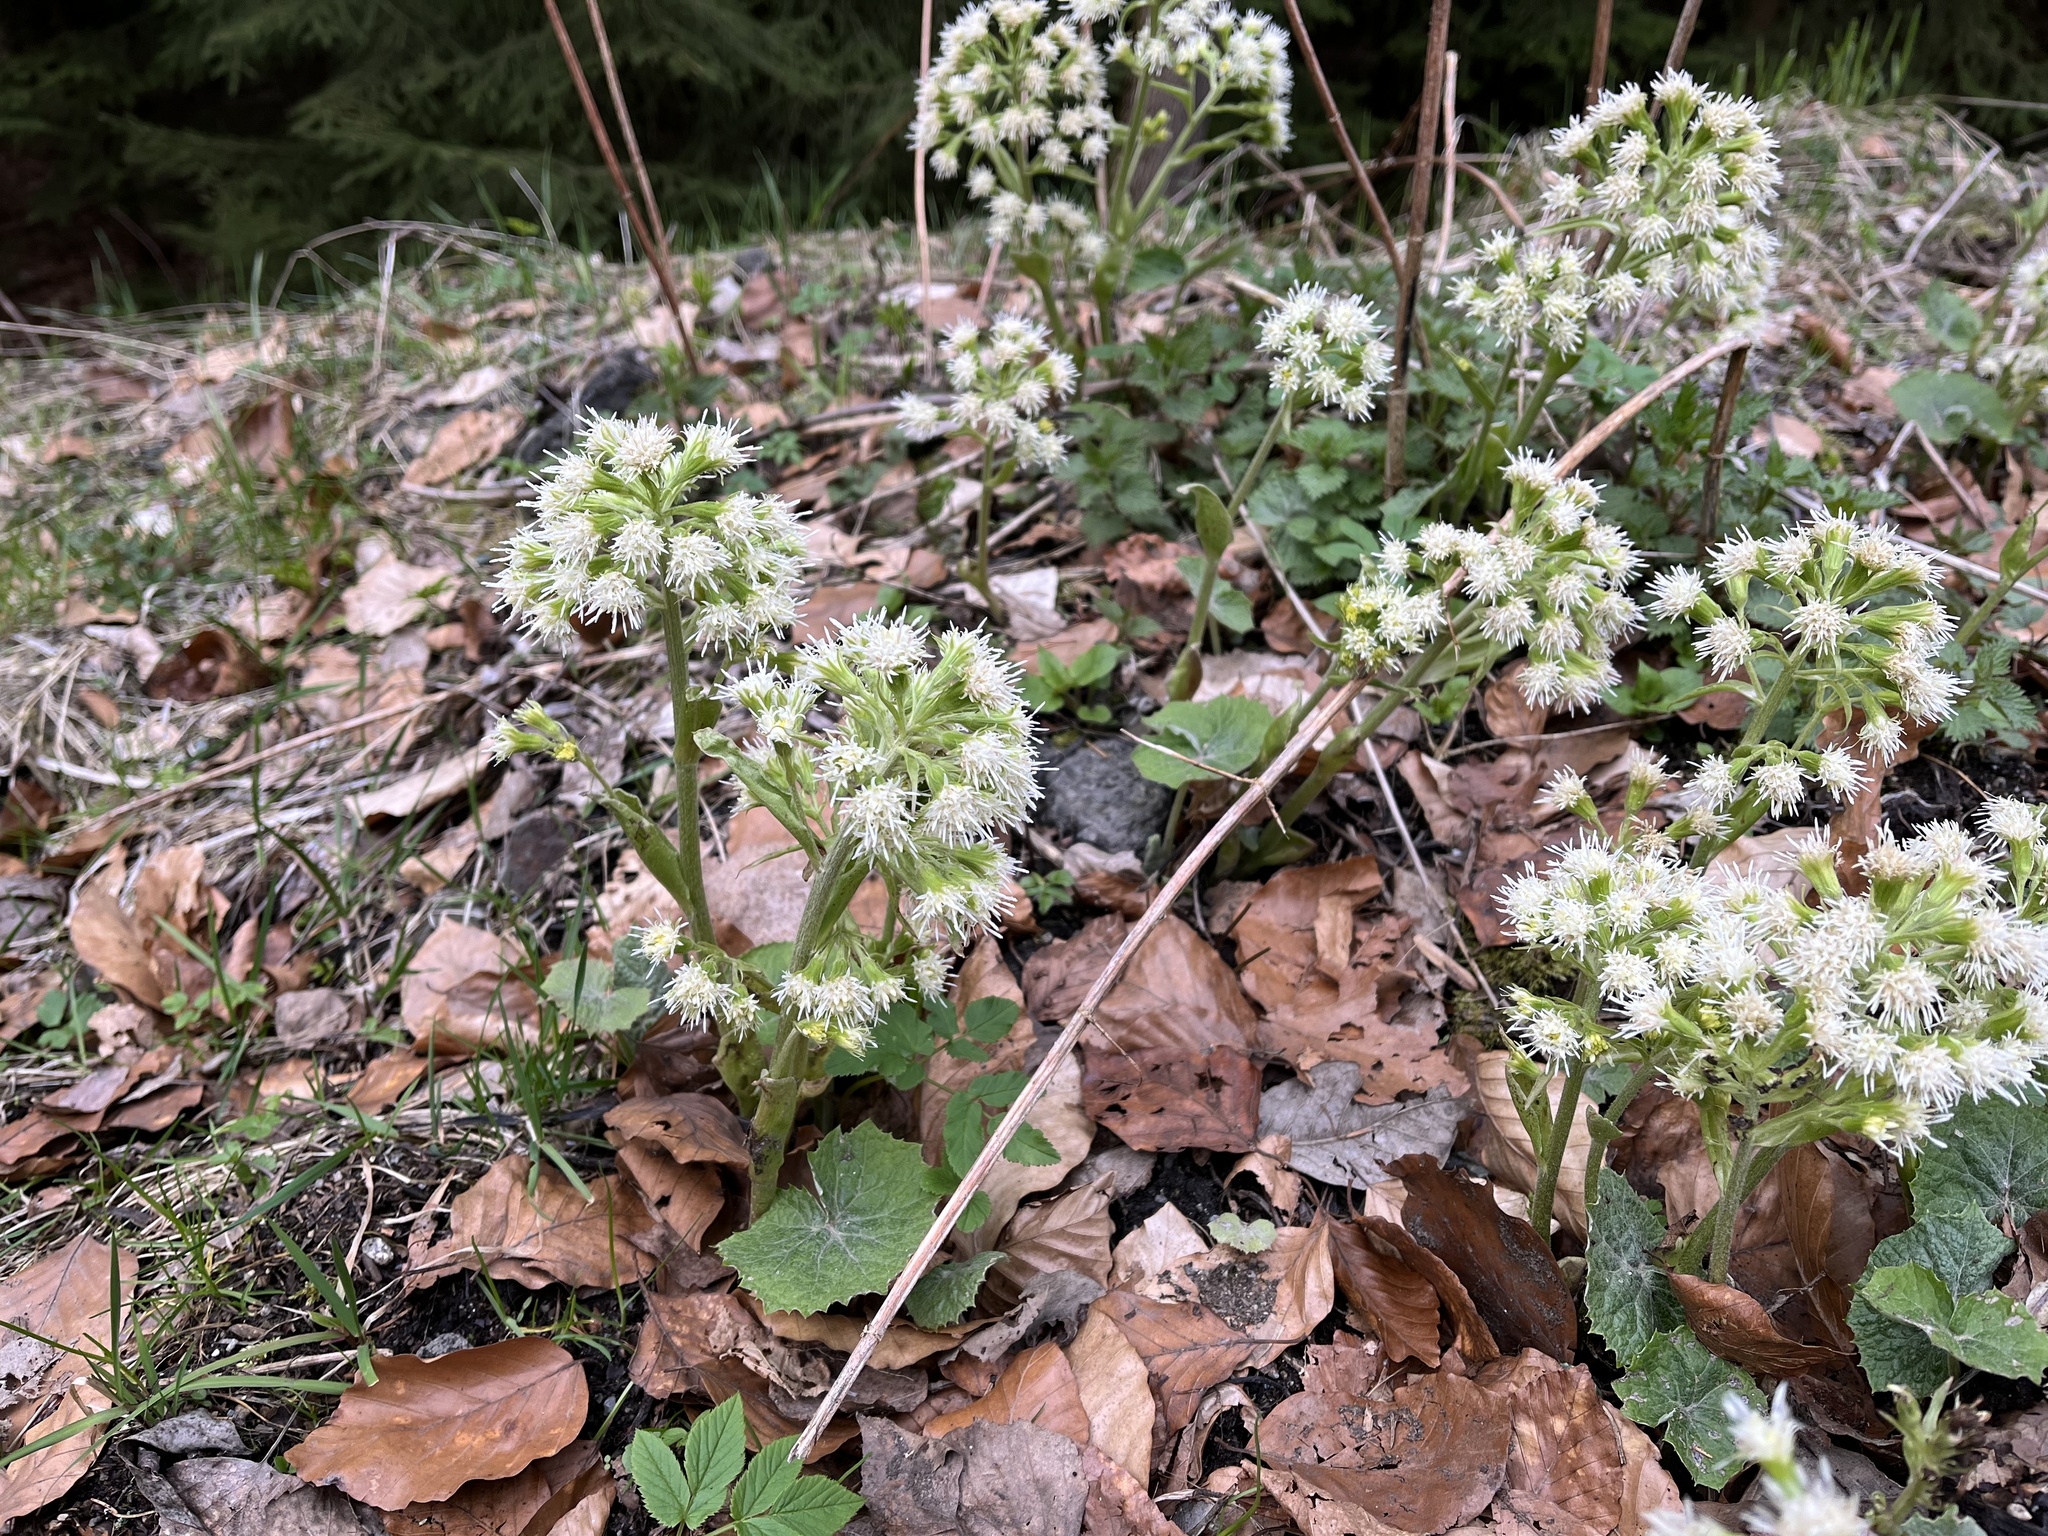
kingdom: Plantae
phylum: Tracheophyta
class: Magnoliopsida
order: Asterales
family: Asteraceae
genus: Petasites
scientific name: Petasites albus
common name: White butterbur
